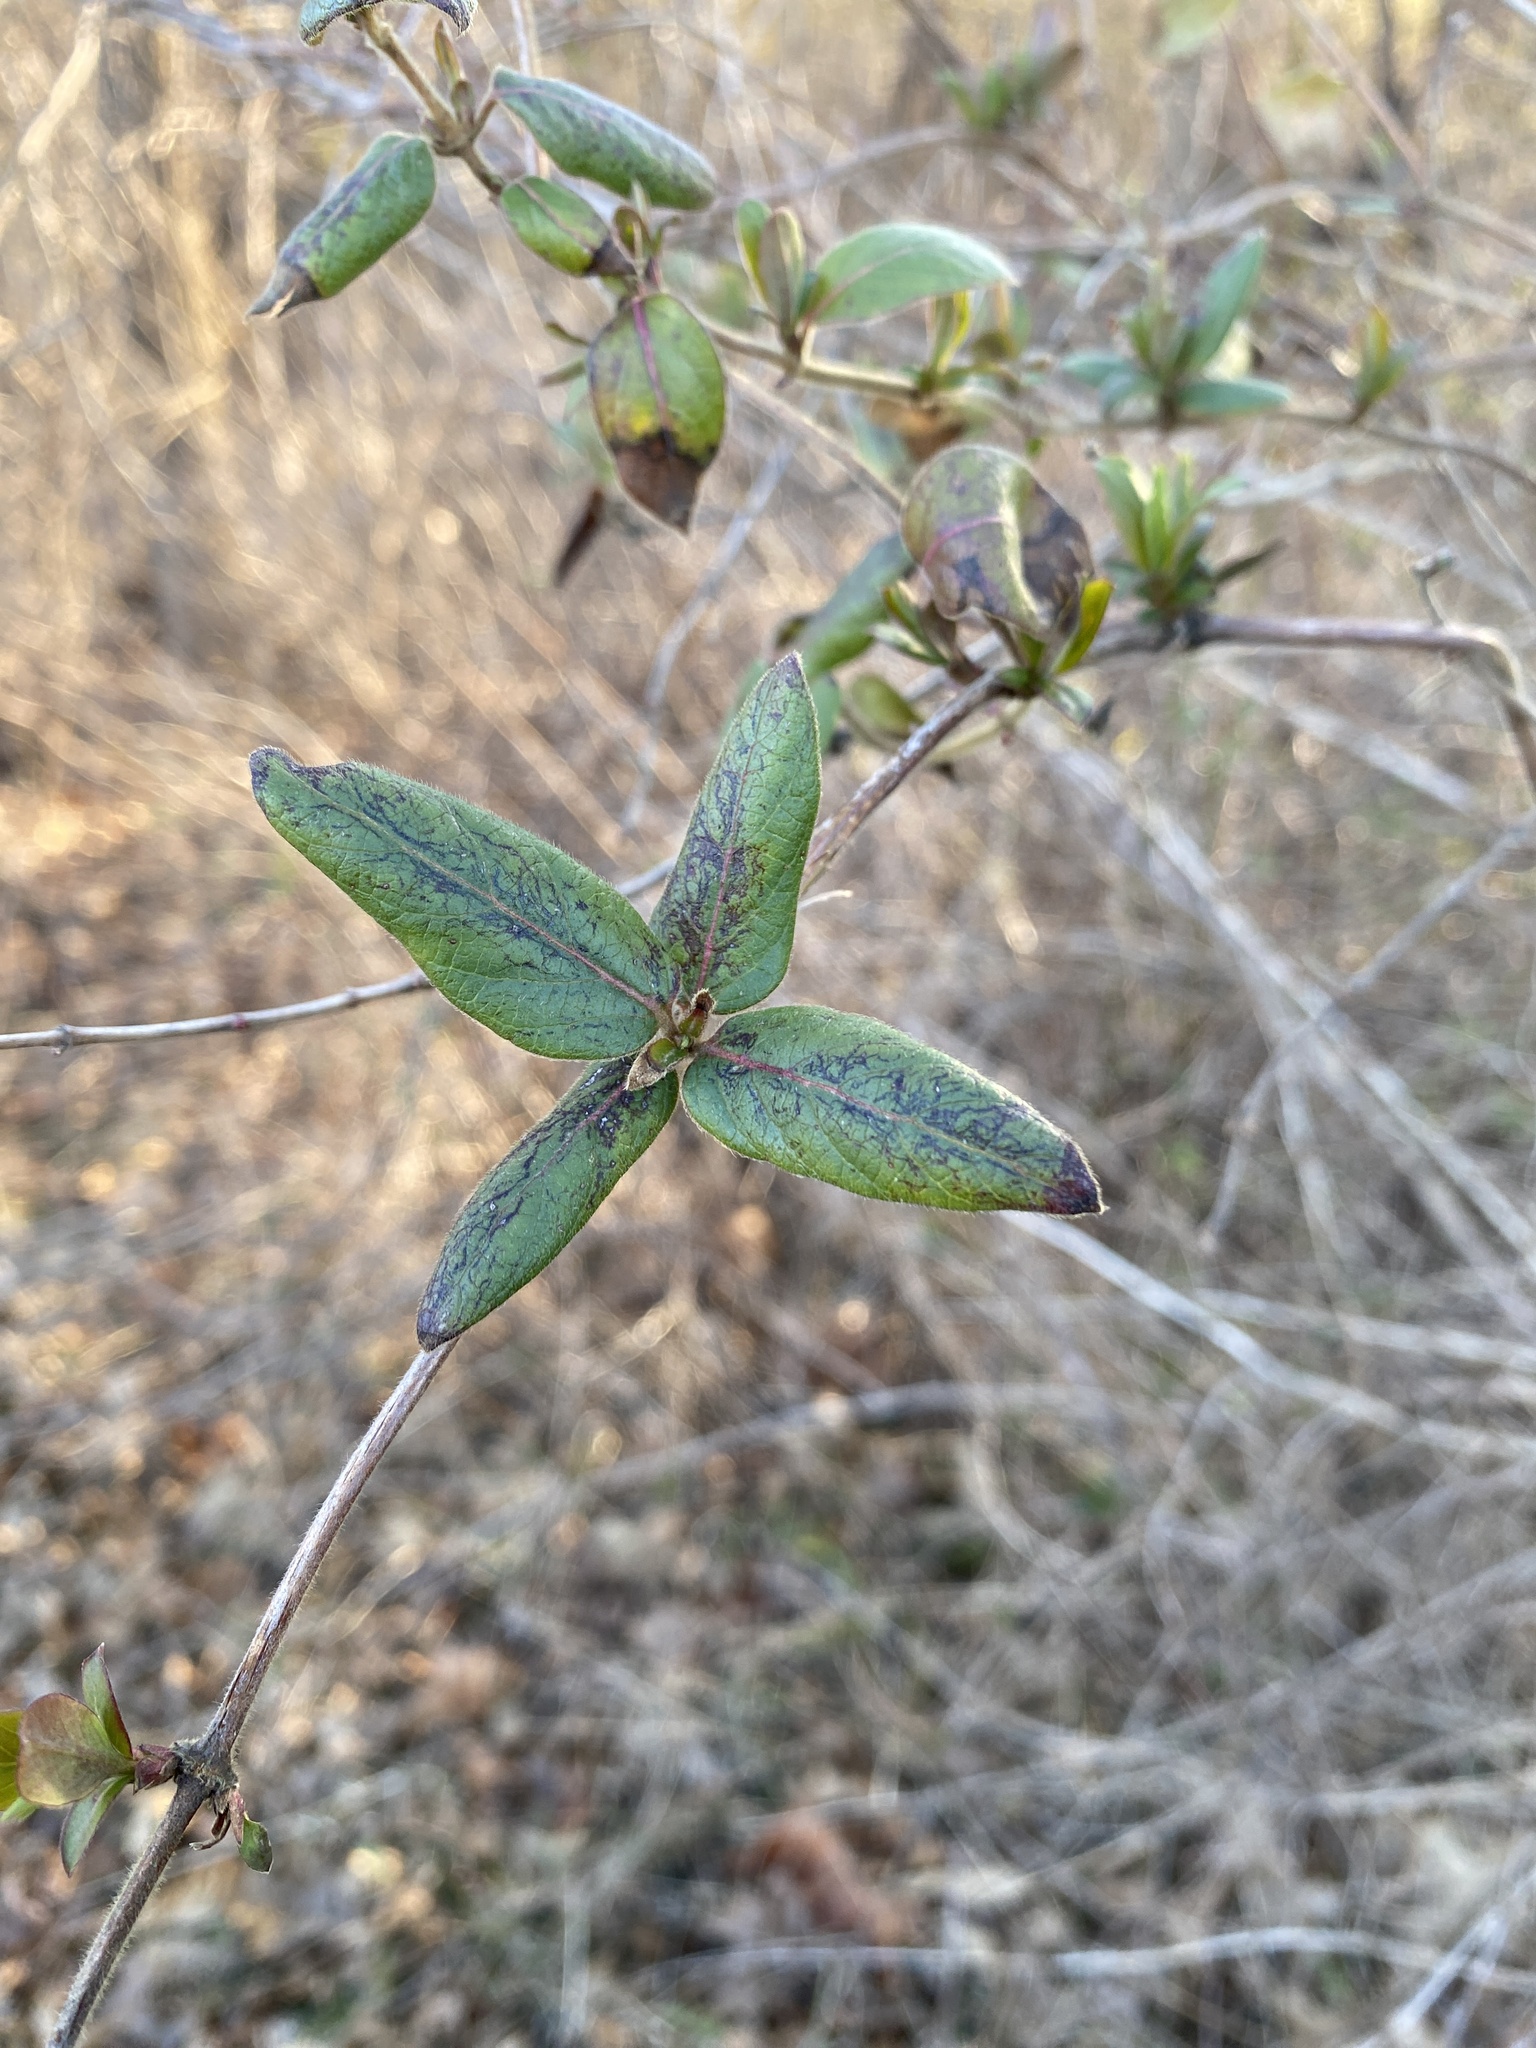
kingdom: Plantae
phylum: Tracheophyta
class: Magnoliopsida
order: Dipsacales
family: Caprifoliaceae
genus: Lonicera
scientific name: Lonicera japonica
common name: Japanese honeysuckle
